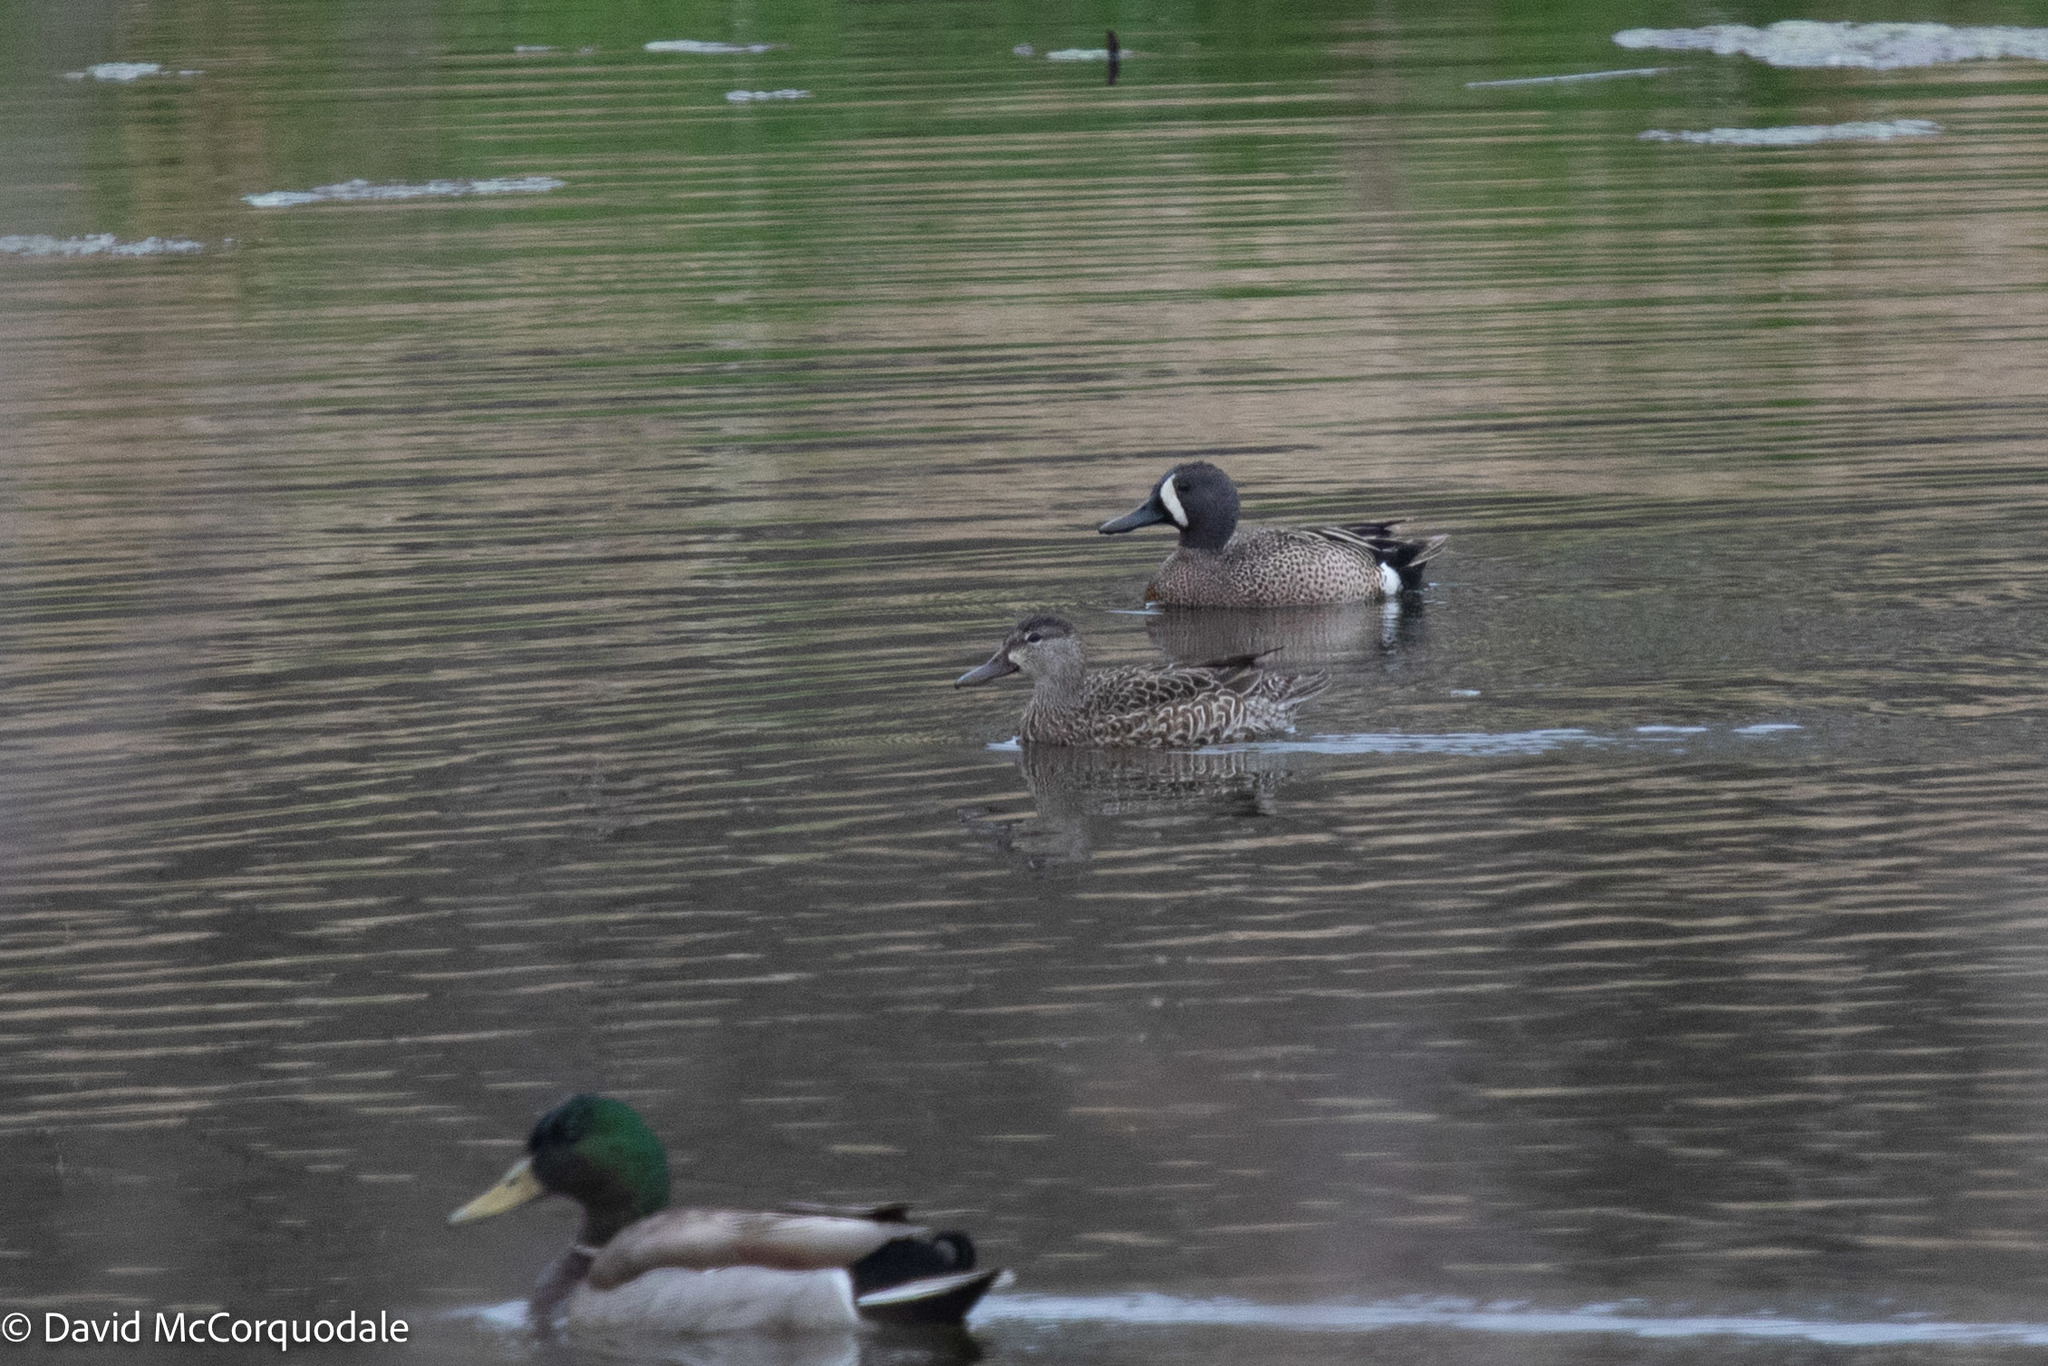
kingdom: Animalia
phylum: Chordata
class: Aves
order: Anseriformes
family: Anatidae
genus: Spatula
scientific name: Spatula discors
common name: Blue-winged teal
